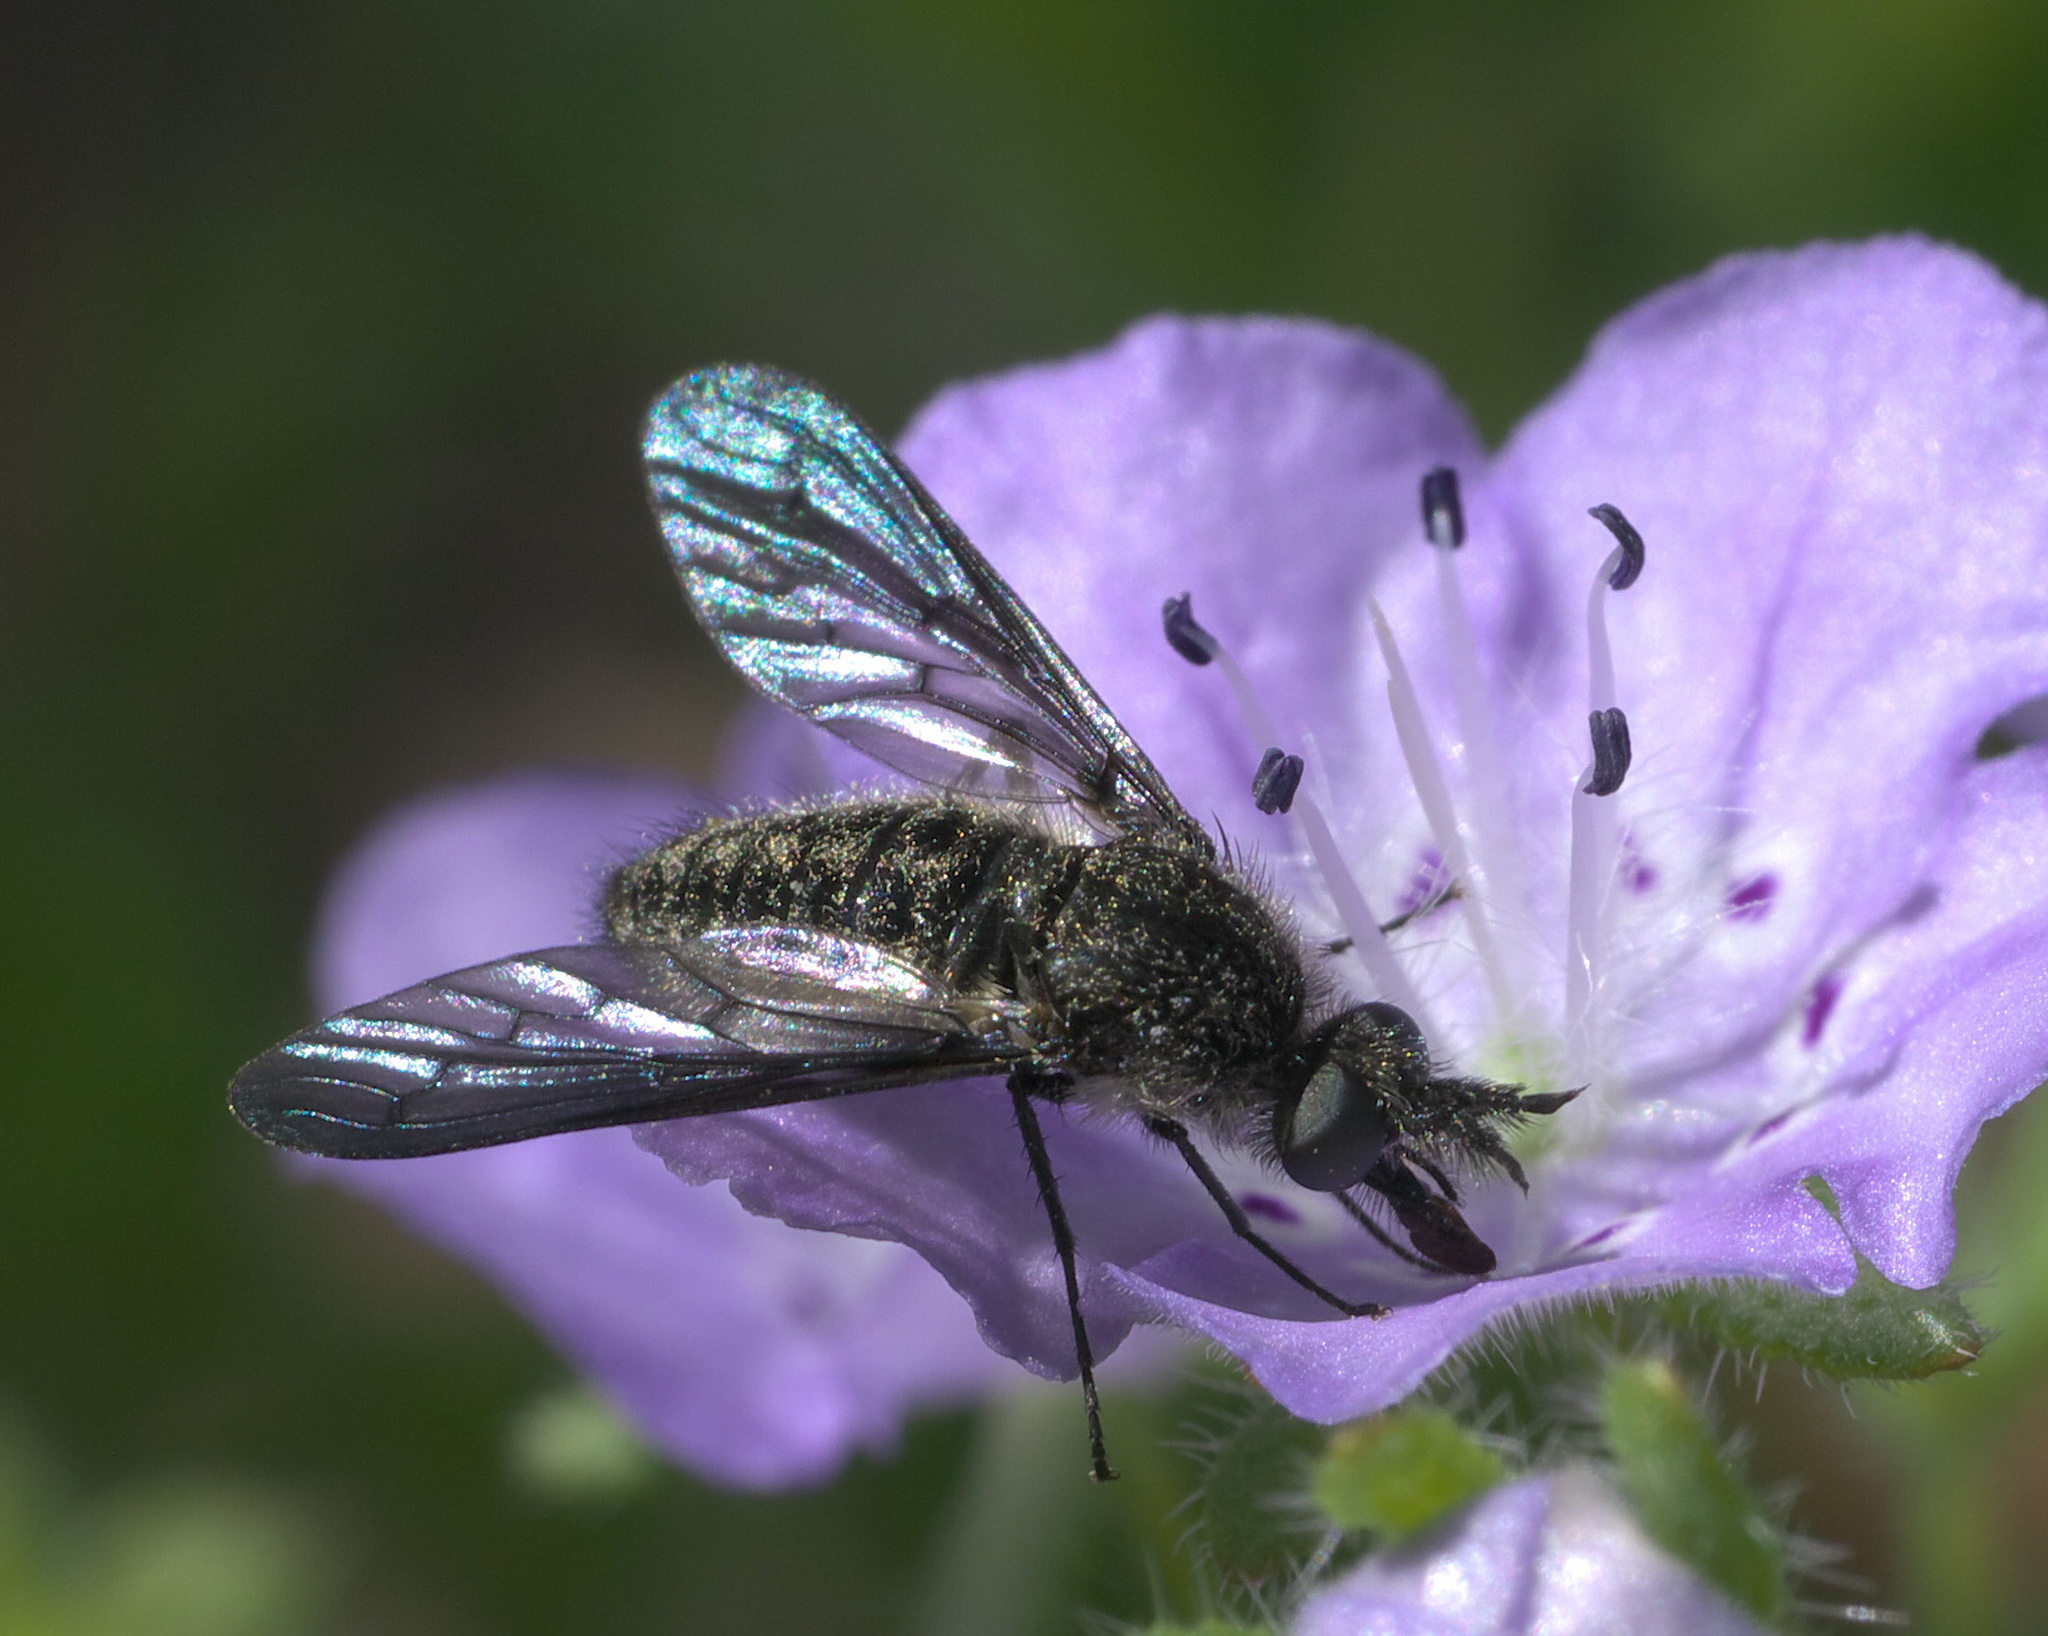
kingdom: Animalia
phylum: Arthropoda
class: Insecta
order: Diptera
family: Bombyliidae
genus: Aldrichia
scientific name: Aldrichia ehrmanni
